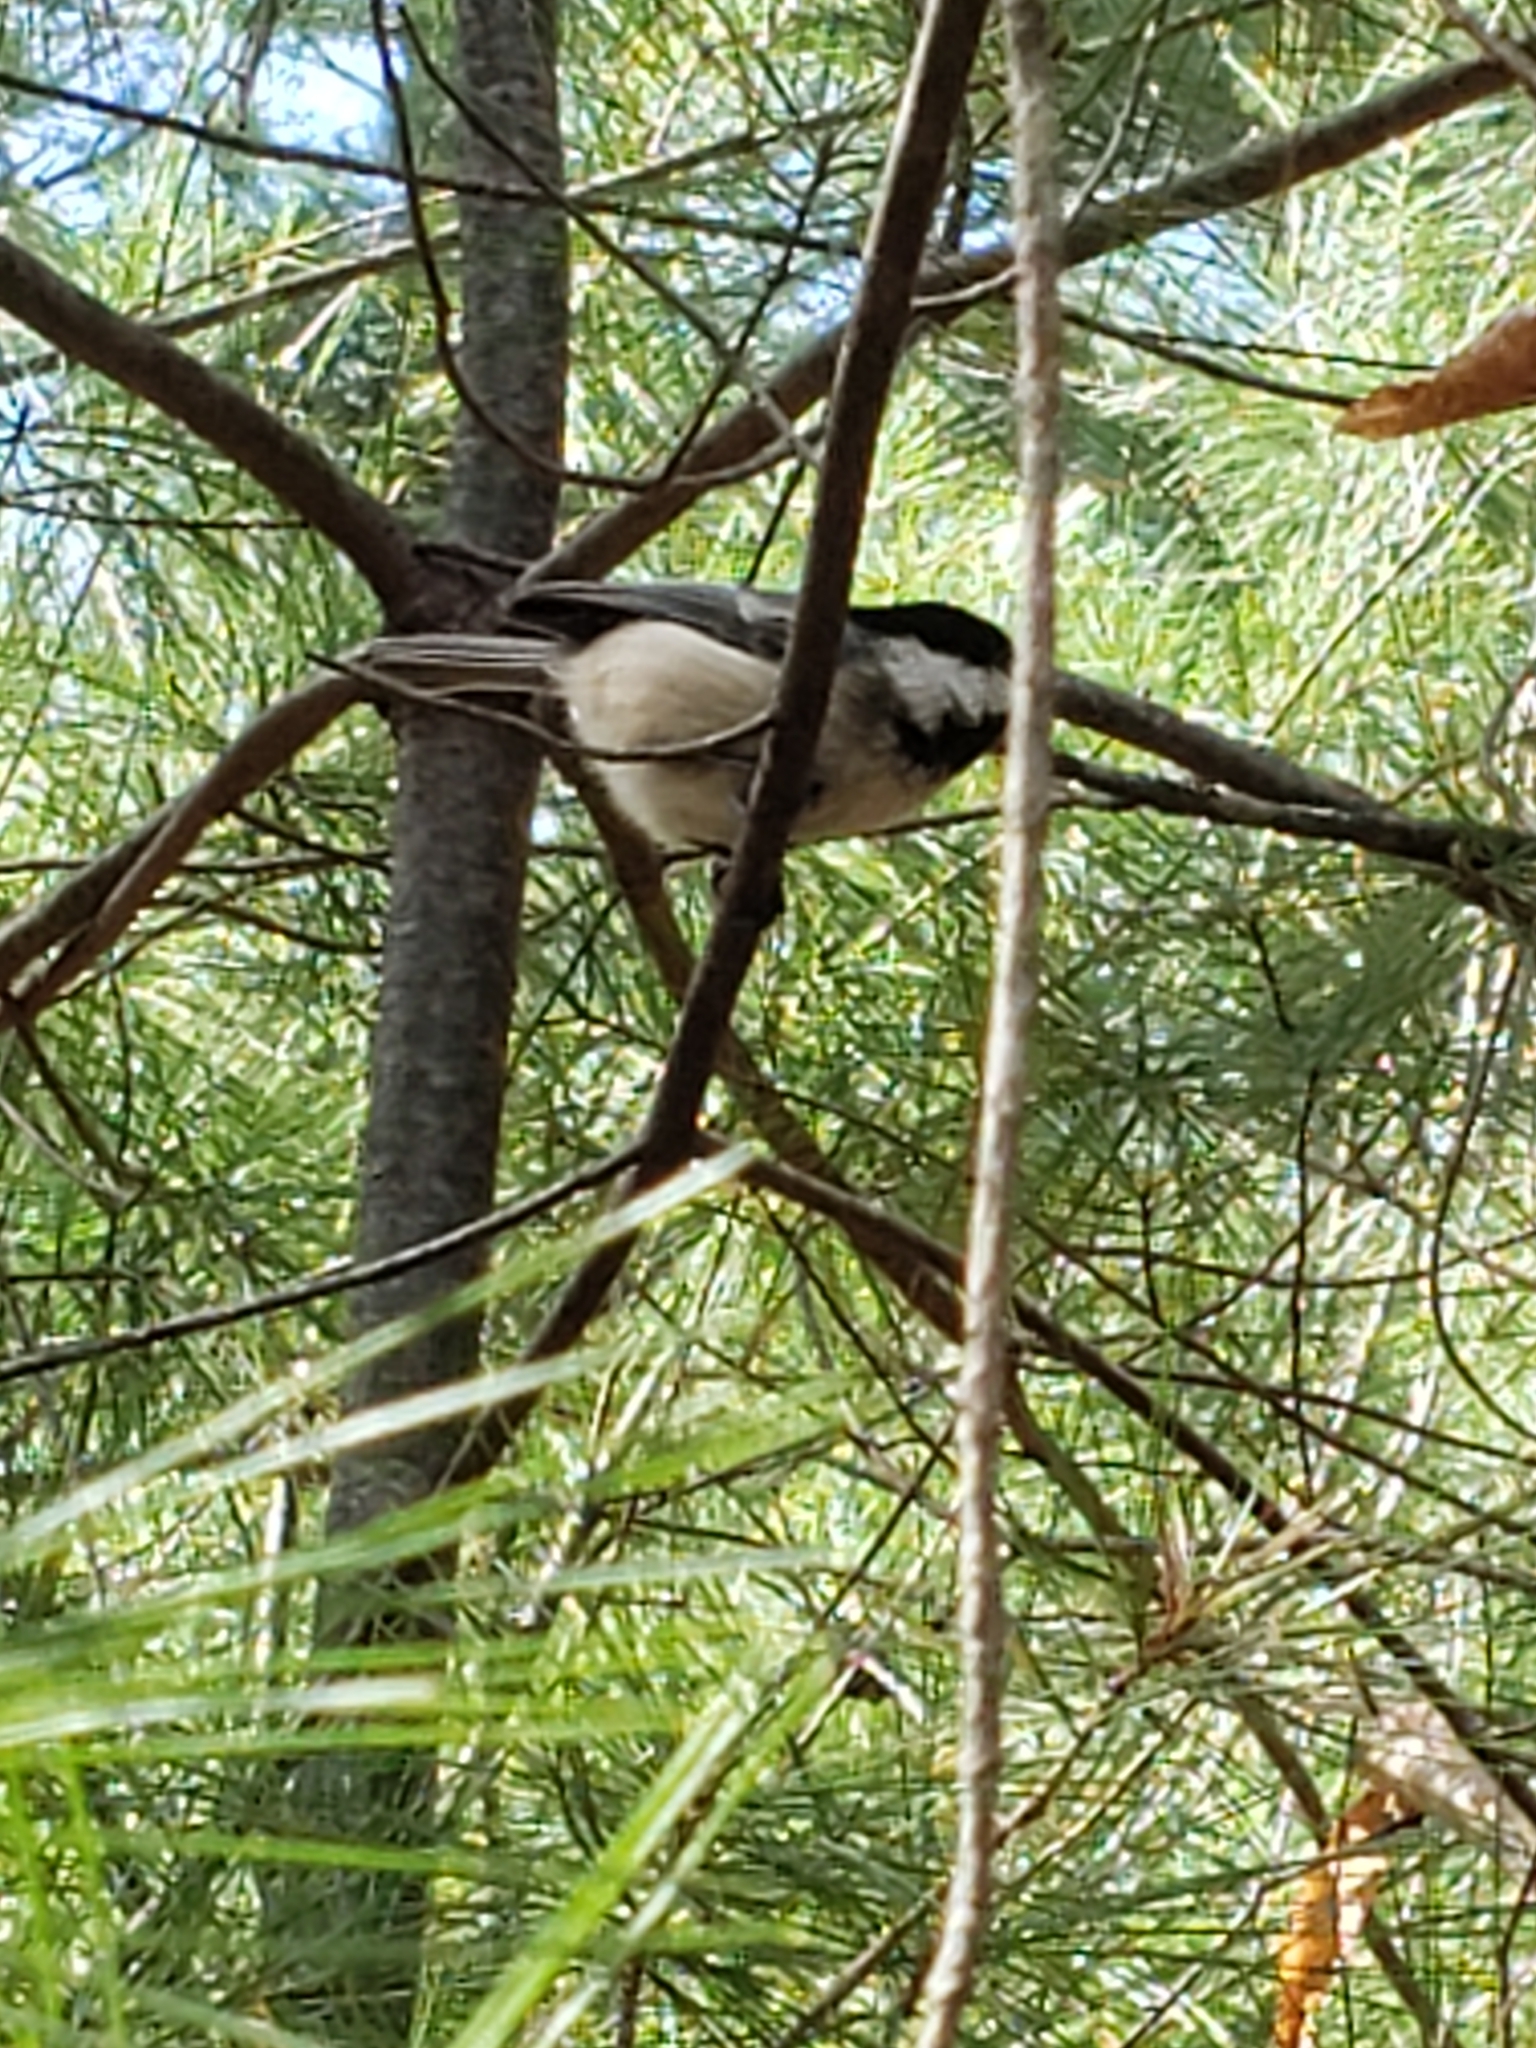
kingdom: Animalia
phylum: Chordata
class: Aves
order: Passeriformes
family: Paridae
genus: Poecile
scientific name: Poecile atricapillus
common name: Black-capped chickadee
